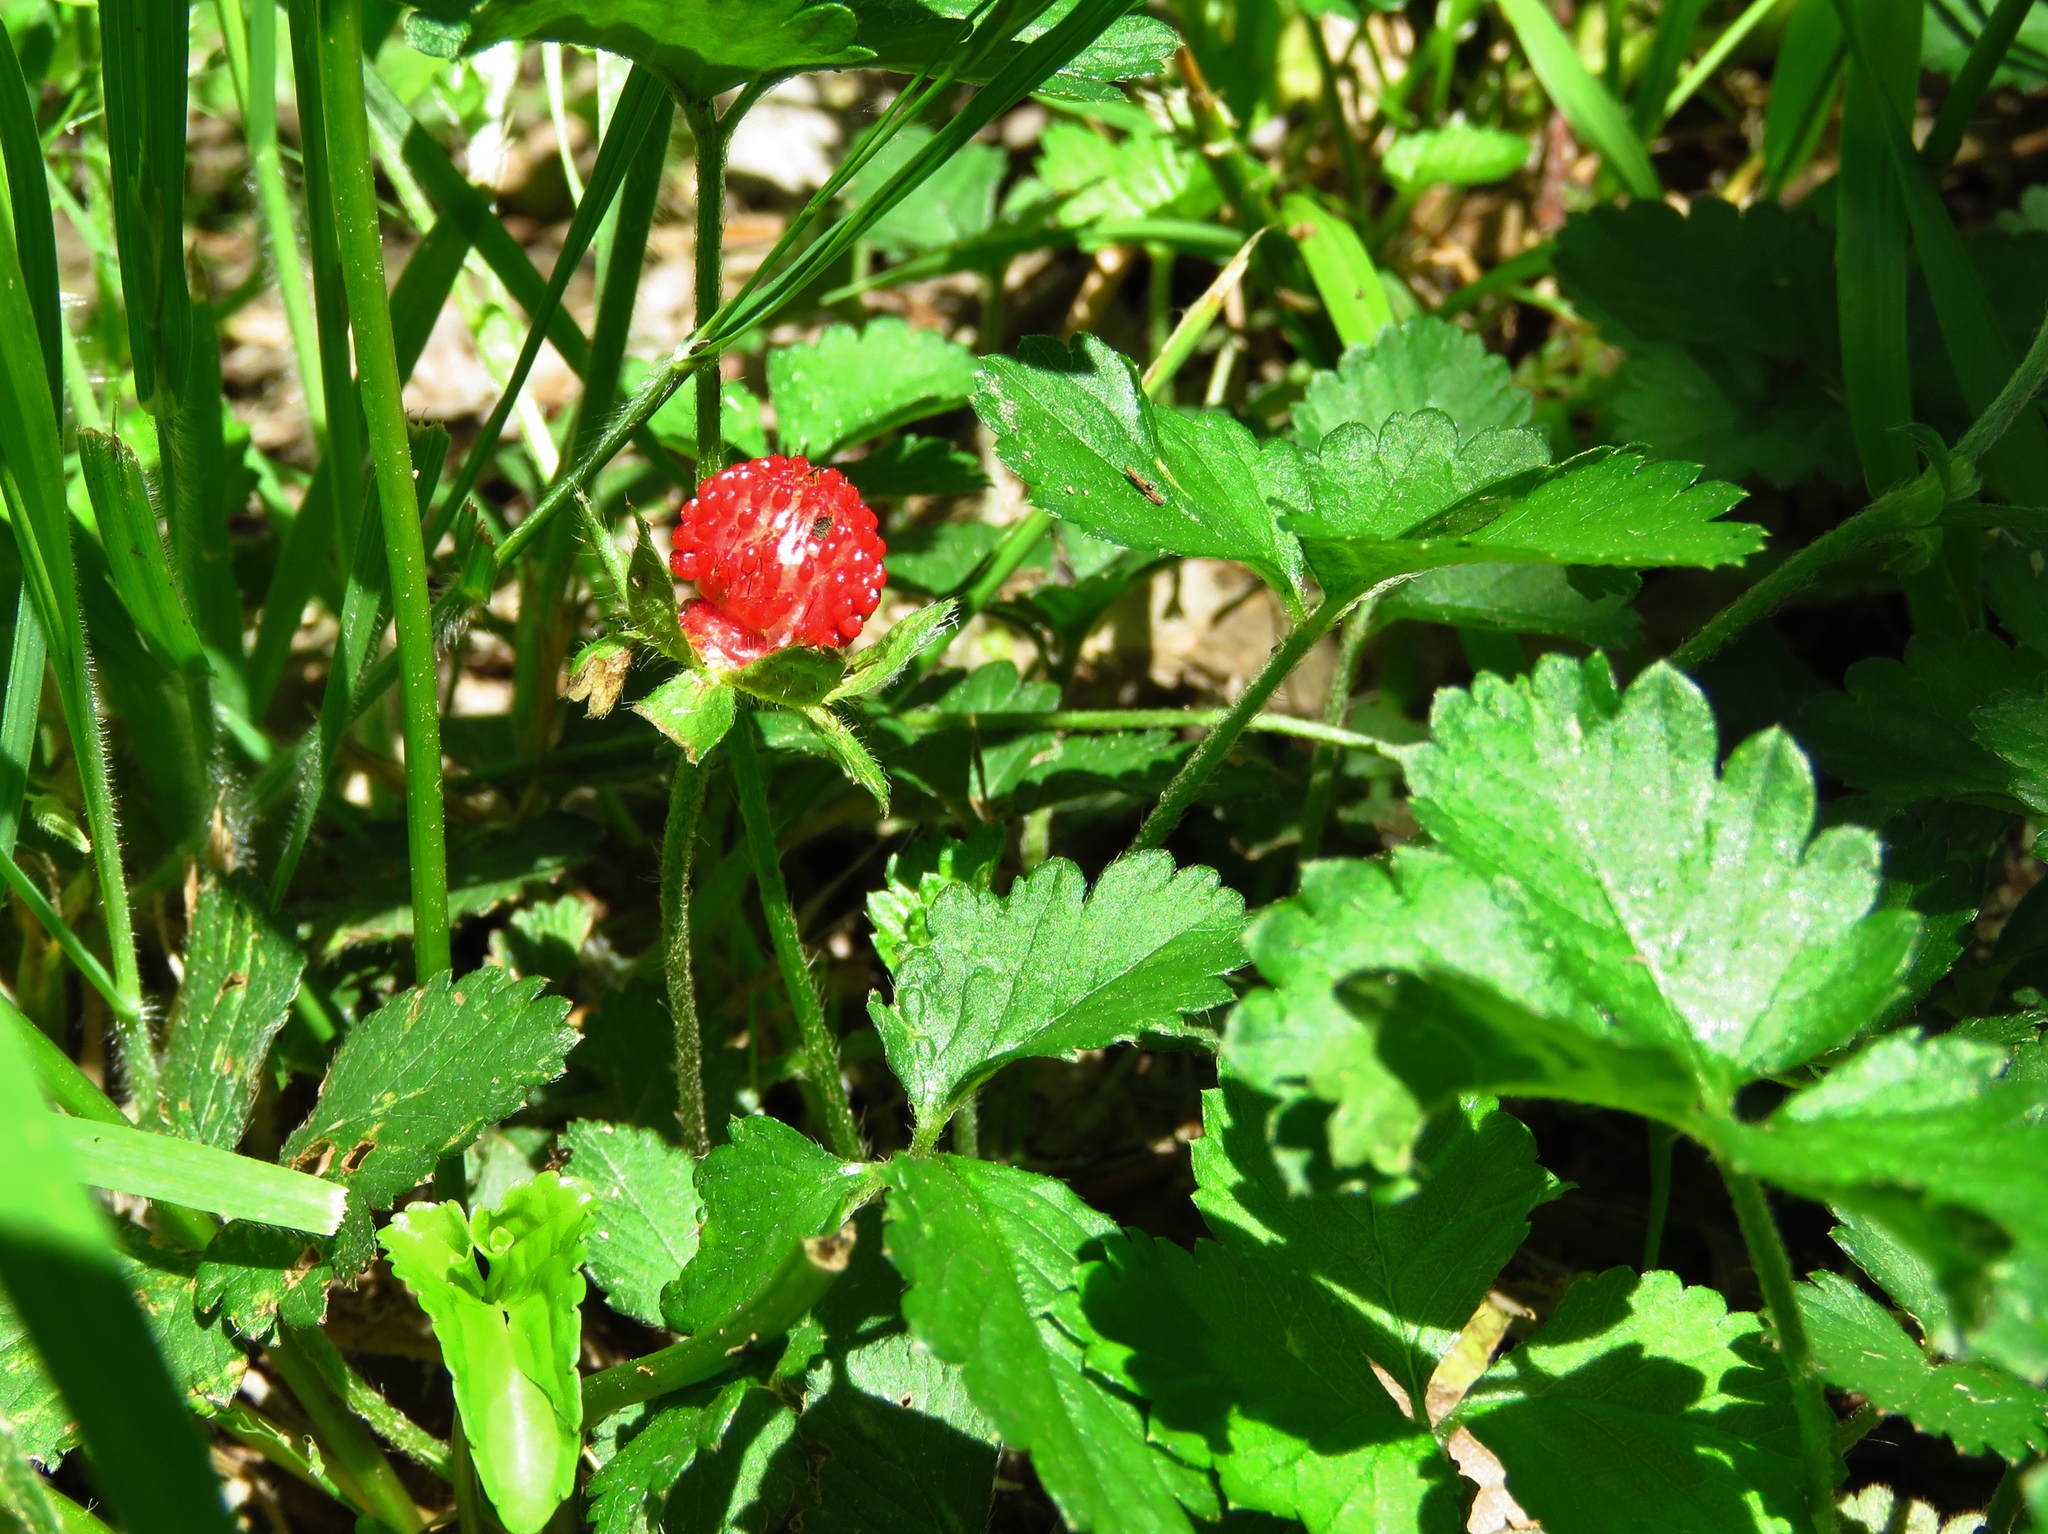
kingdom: Plantae
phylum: Tracheophyta
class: Magnoliopsida
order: Rosales
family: Rosaceae
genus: Potentilla
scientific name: Potentilla indica
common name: Yellow-flowered strawberry
